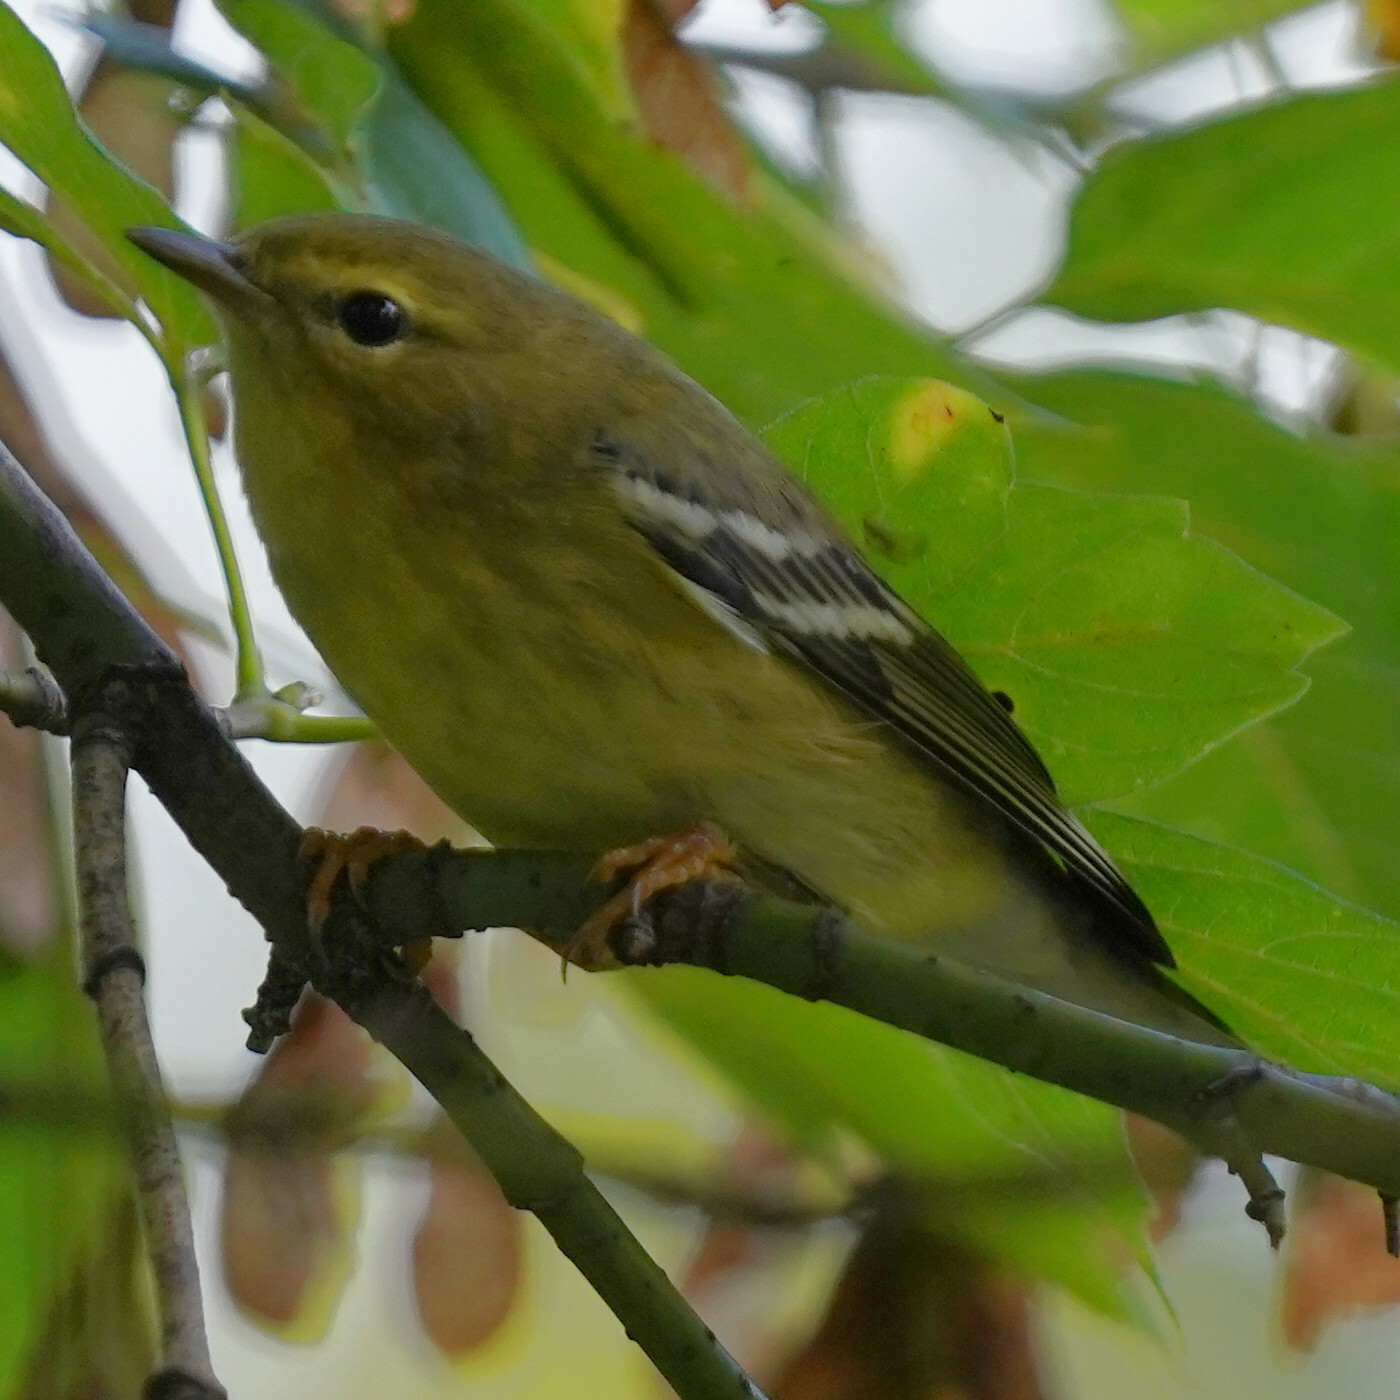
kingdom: Animalia
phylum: Chordata
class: Aves
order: Passeriformes
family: Parulidae
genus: Setophaga
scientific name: Setophaga striata
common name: Blackpoll warbler
